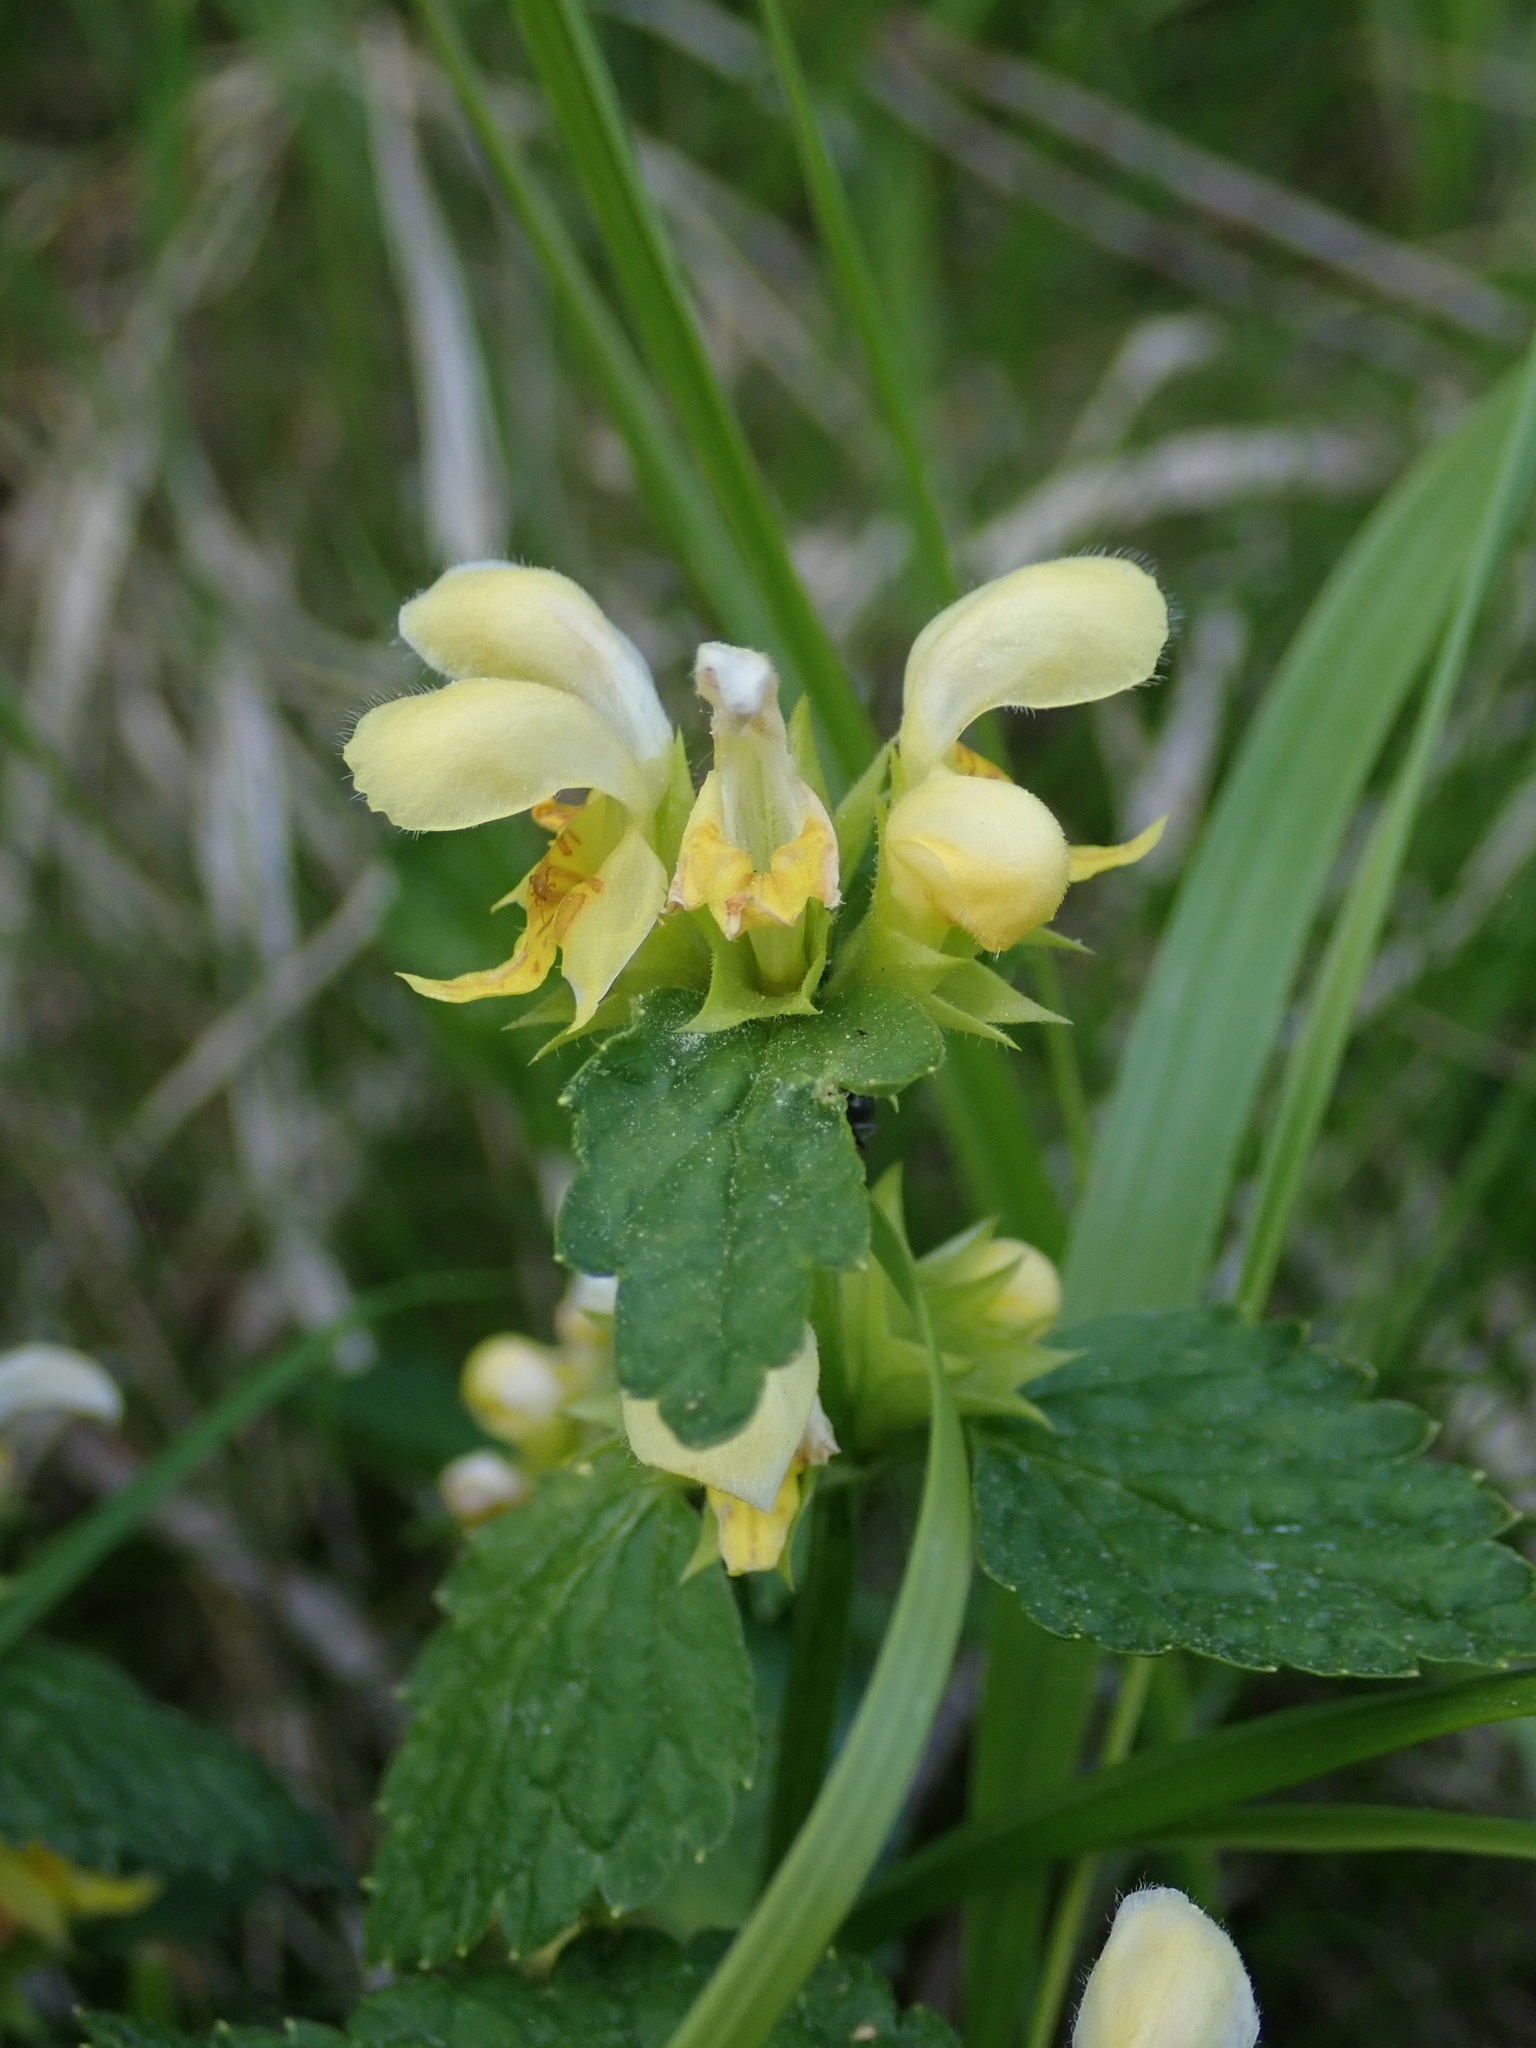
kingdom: Plantae
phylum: Tracheophyta
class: Magnoliopsida
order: Lamiales
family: Lamiaceae
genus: Lamium
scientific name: Lamium galeobdolon
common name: Yellow archangel
